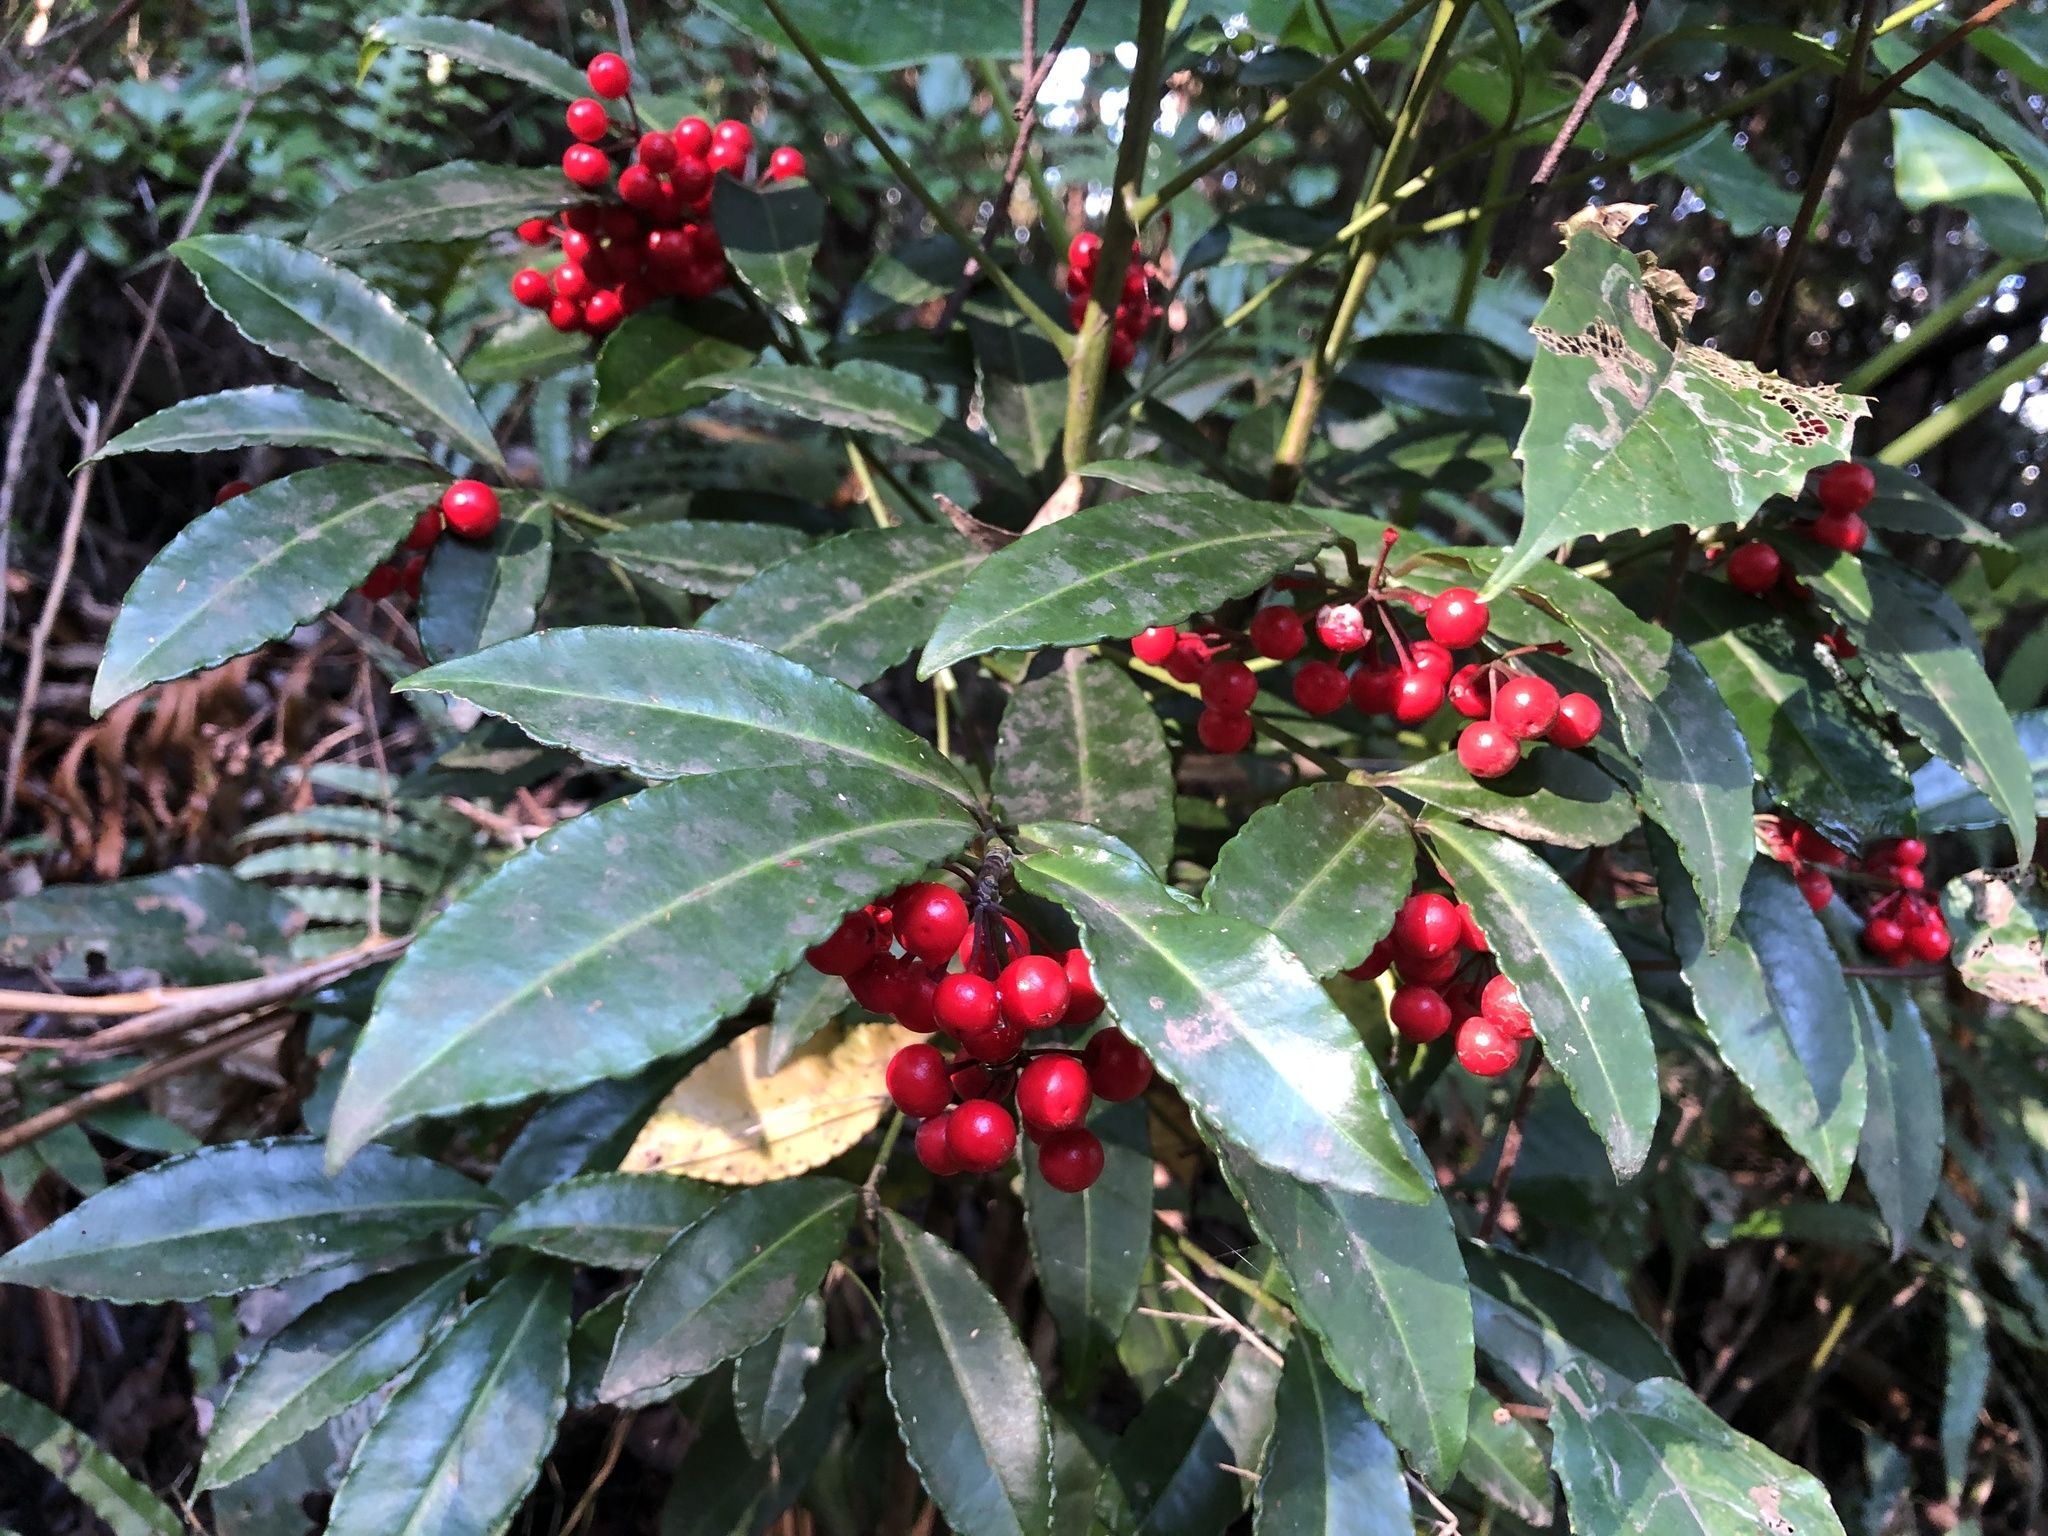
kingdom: Plantae
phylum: Tracheophyta
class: Magnoliopsida
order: Ericales
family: Primulaceae
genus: Ardisia
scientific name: Ardisia crenata
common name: Hen's eyes
